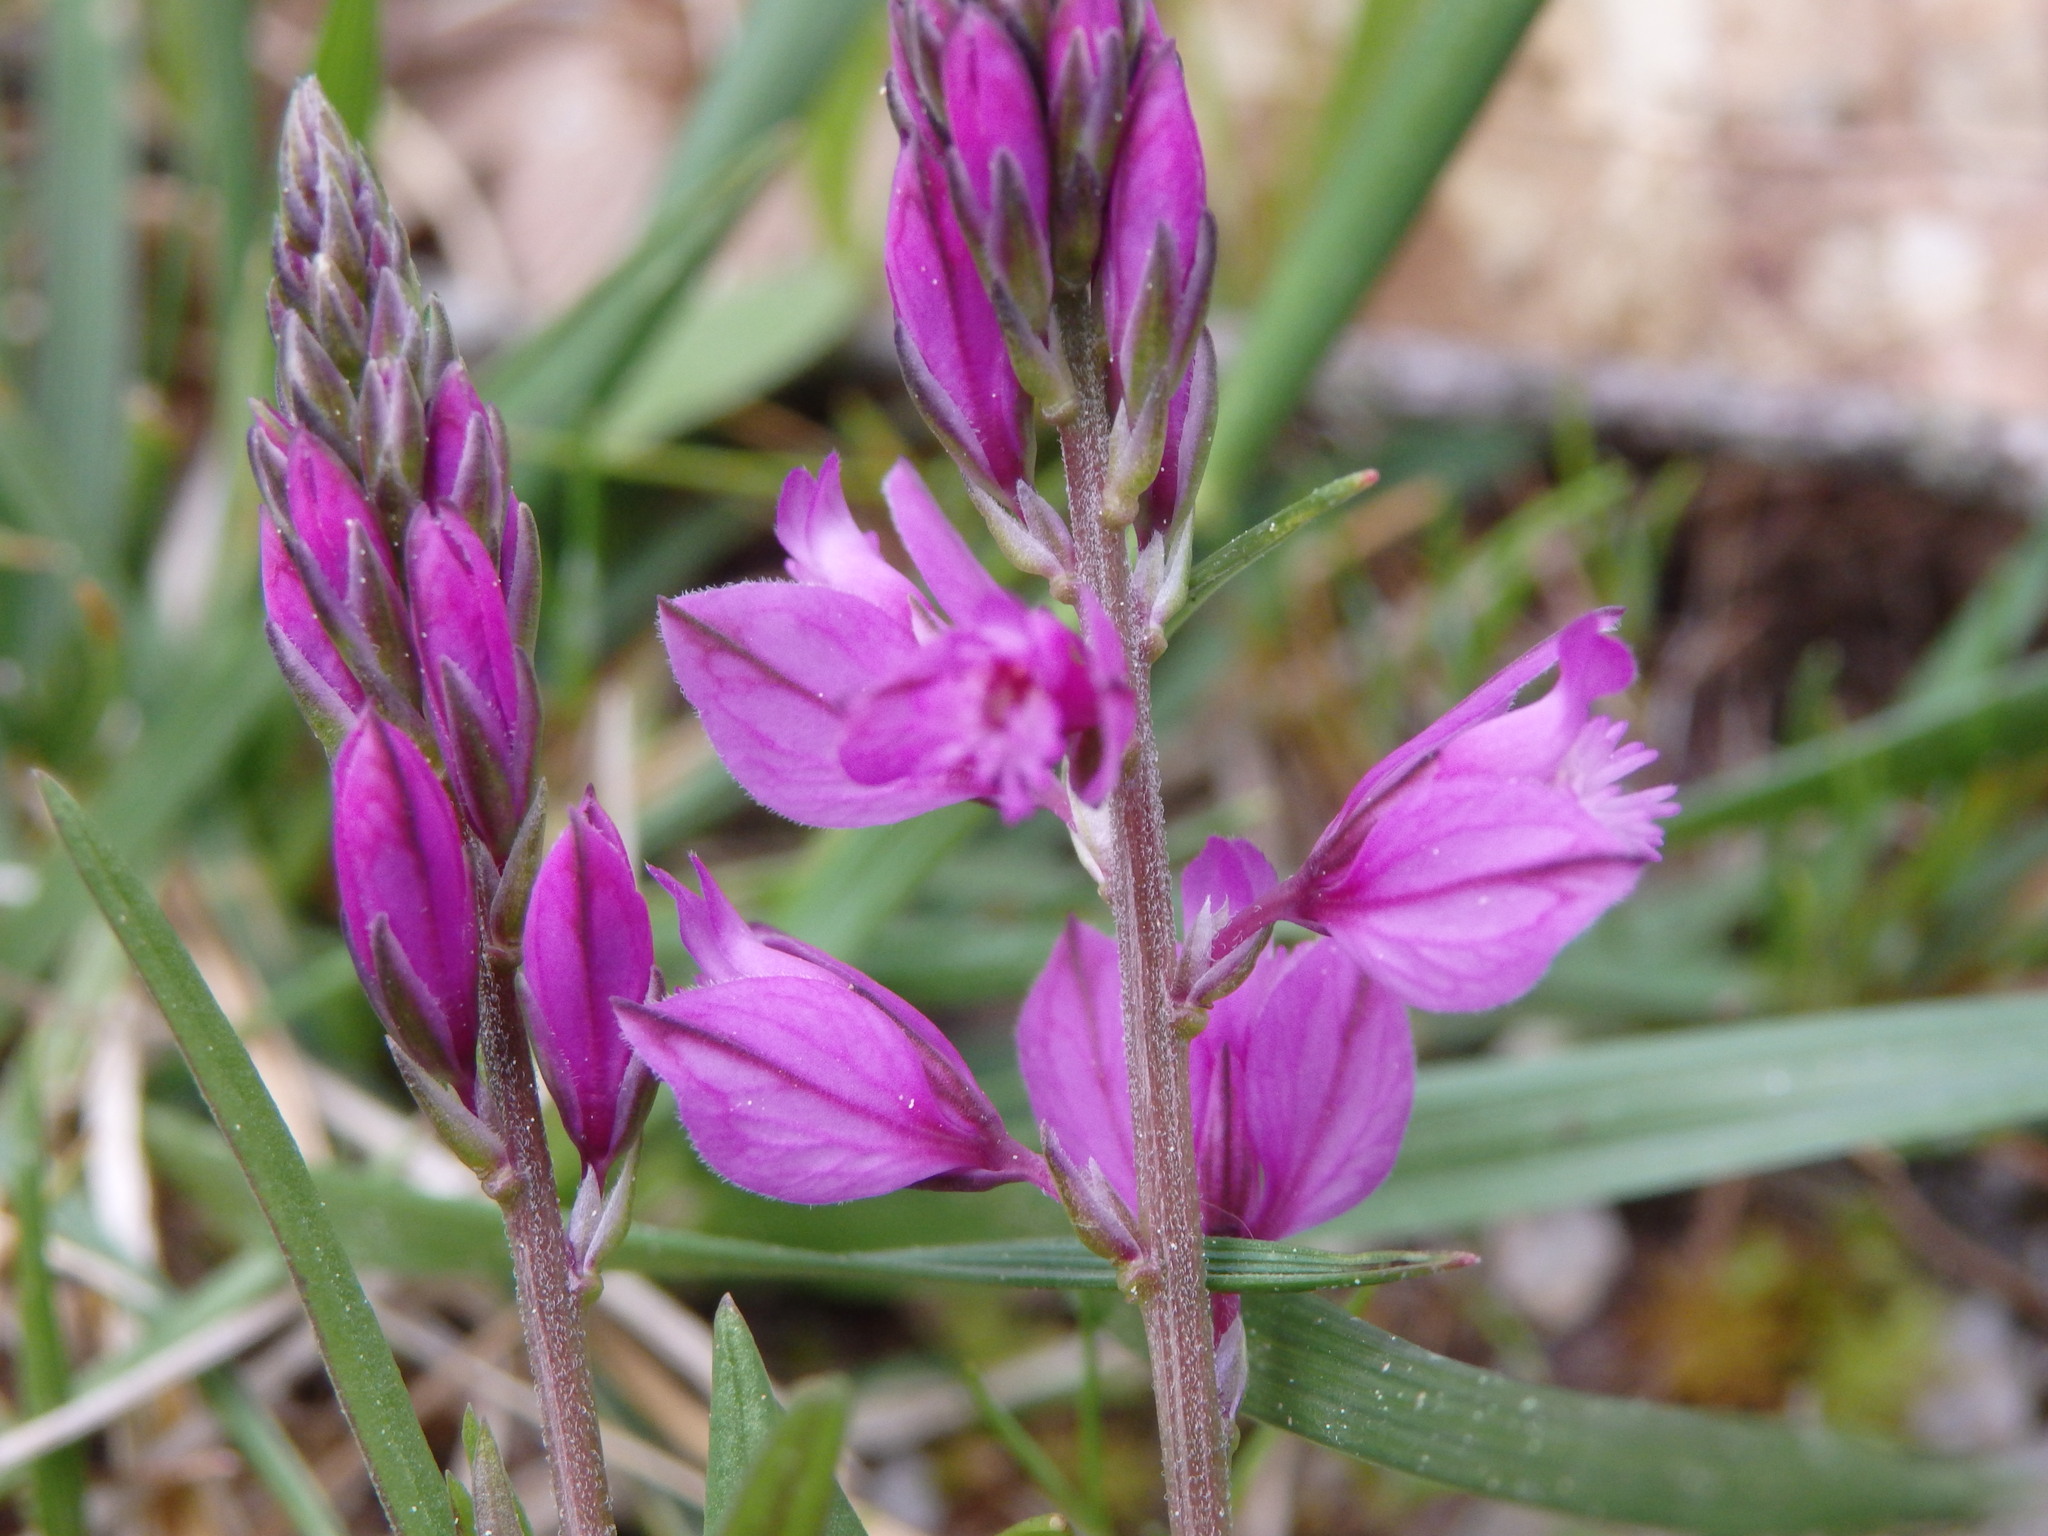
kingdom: Plantae
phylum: Tracheophyta
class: Magnoliopsida
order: Fabales
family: Polygalaceae
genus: Polygala
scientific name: Polygala vulgaris
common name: Common milkwort
